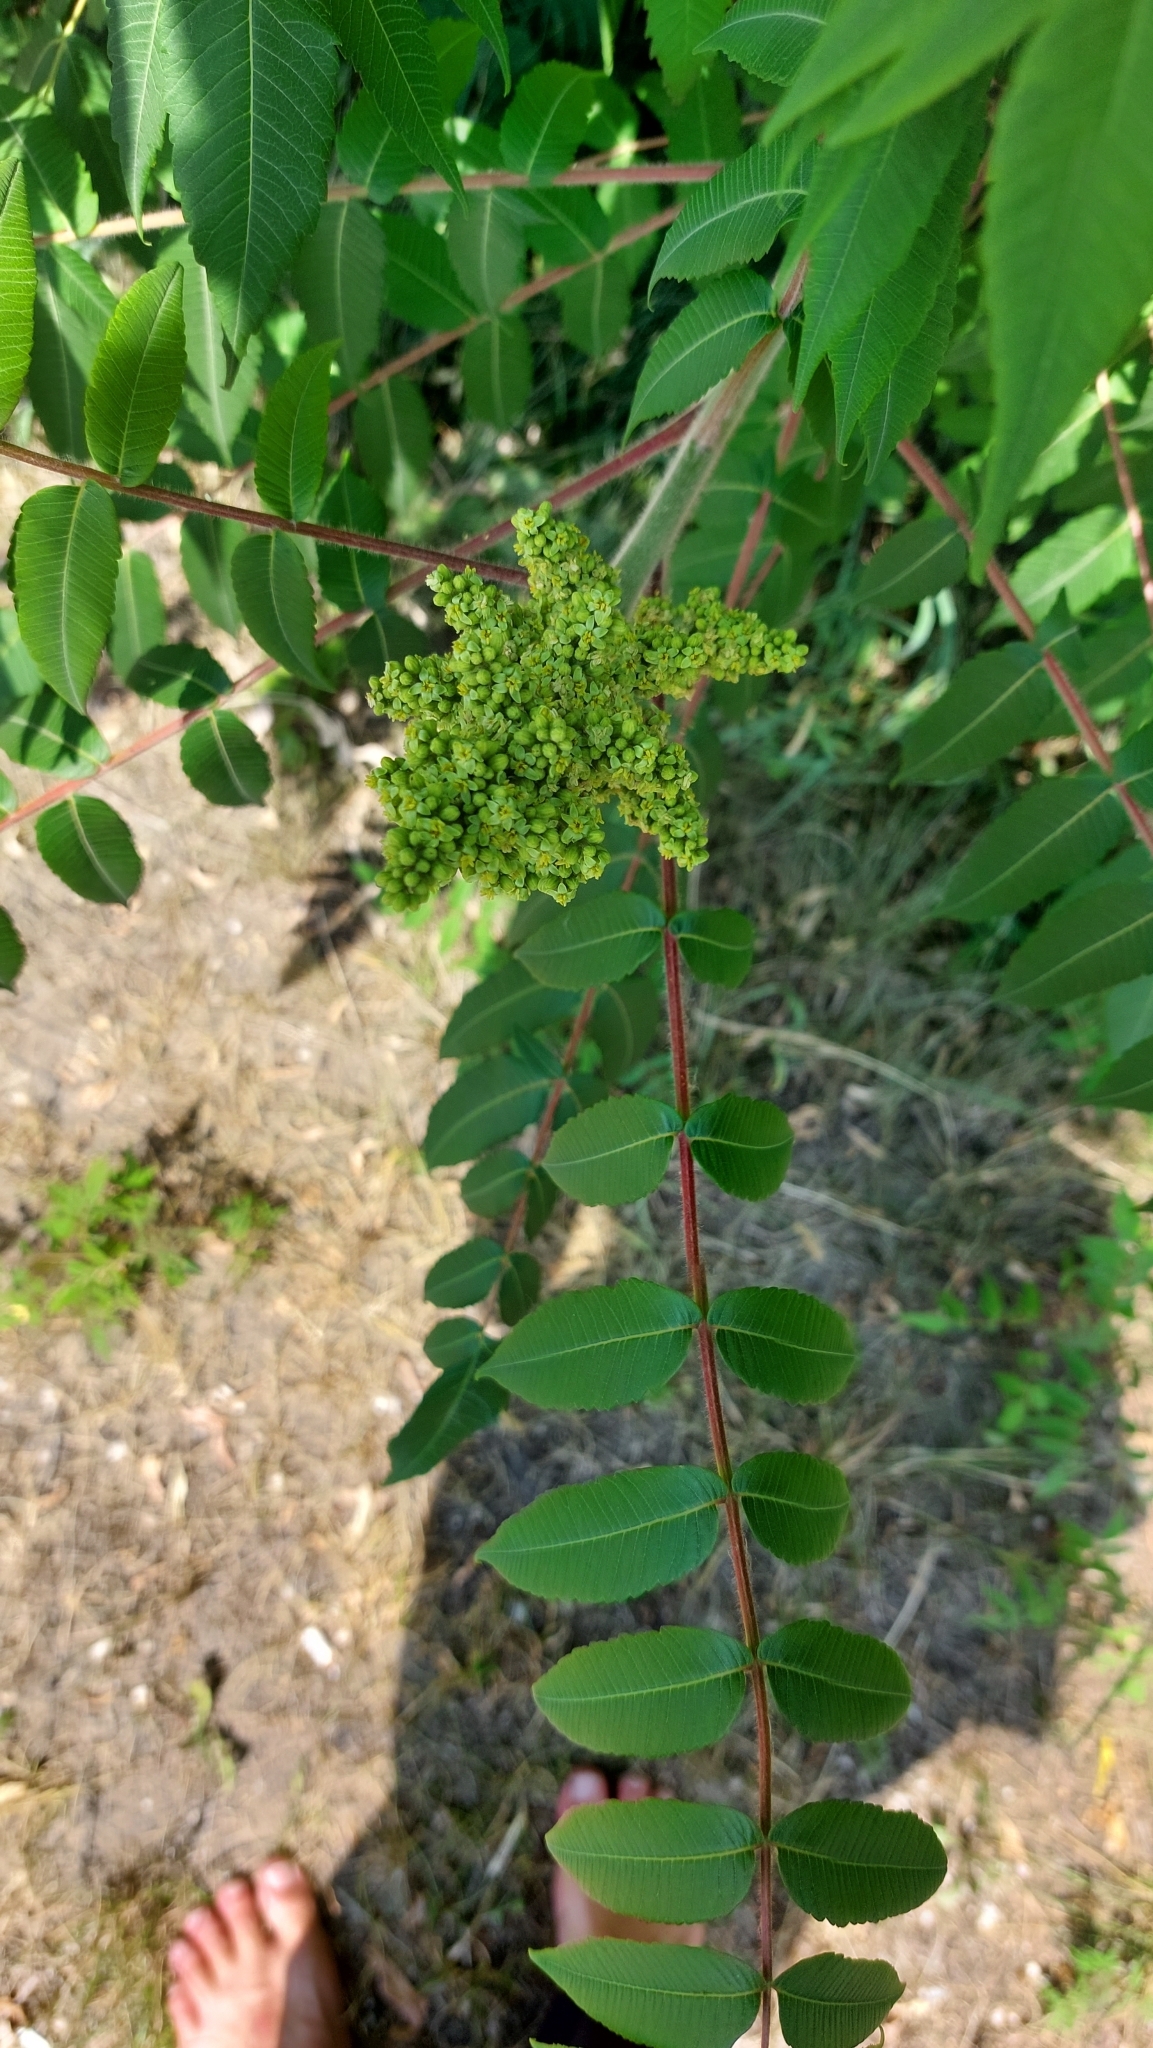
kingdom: Plantae
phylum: Tracheophyta
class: Magnoliopsida
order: Sapindales
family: Anacardiaceae
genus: Rhus
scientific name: Rhus typhina
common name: Staghorn sumac
